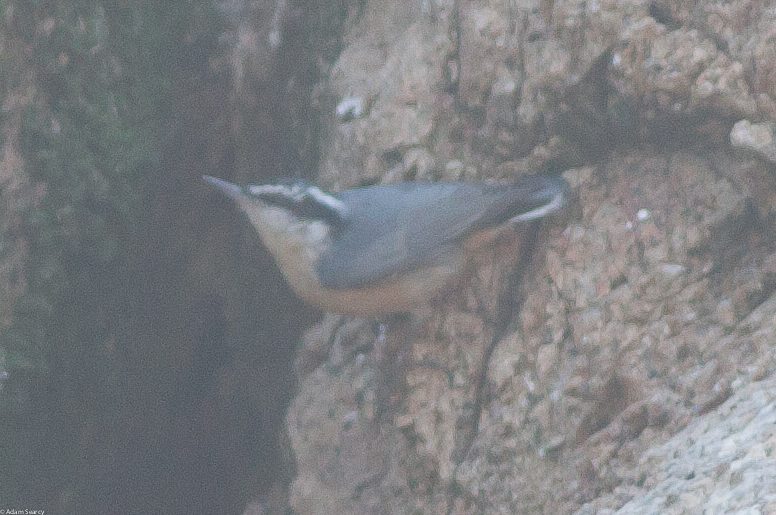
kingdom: Animalia
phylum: Chordata
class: Aves
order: Passeriformes
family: Sittidae
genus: Sitta
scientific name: Sitta canadensis
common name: Red-breasted nuthatch
